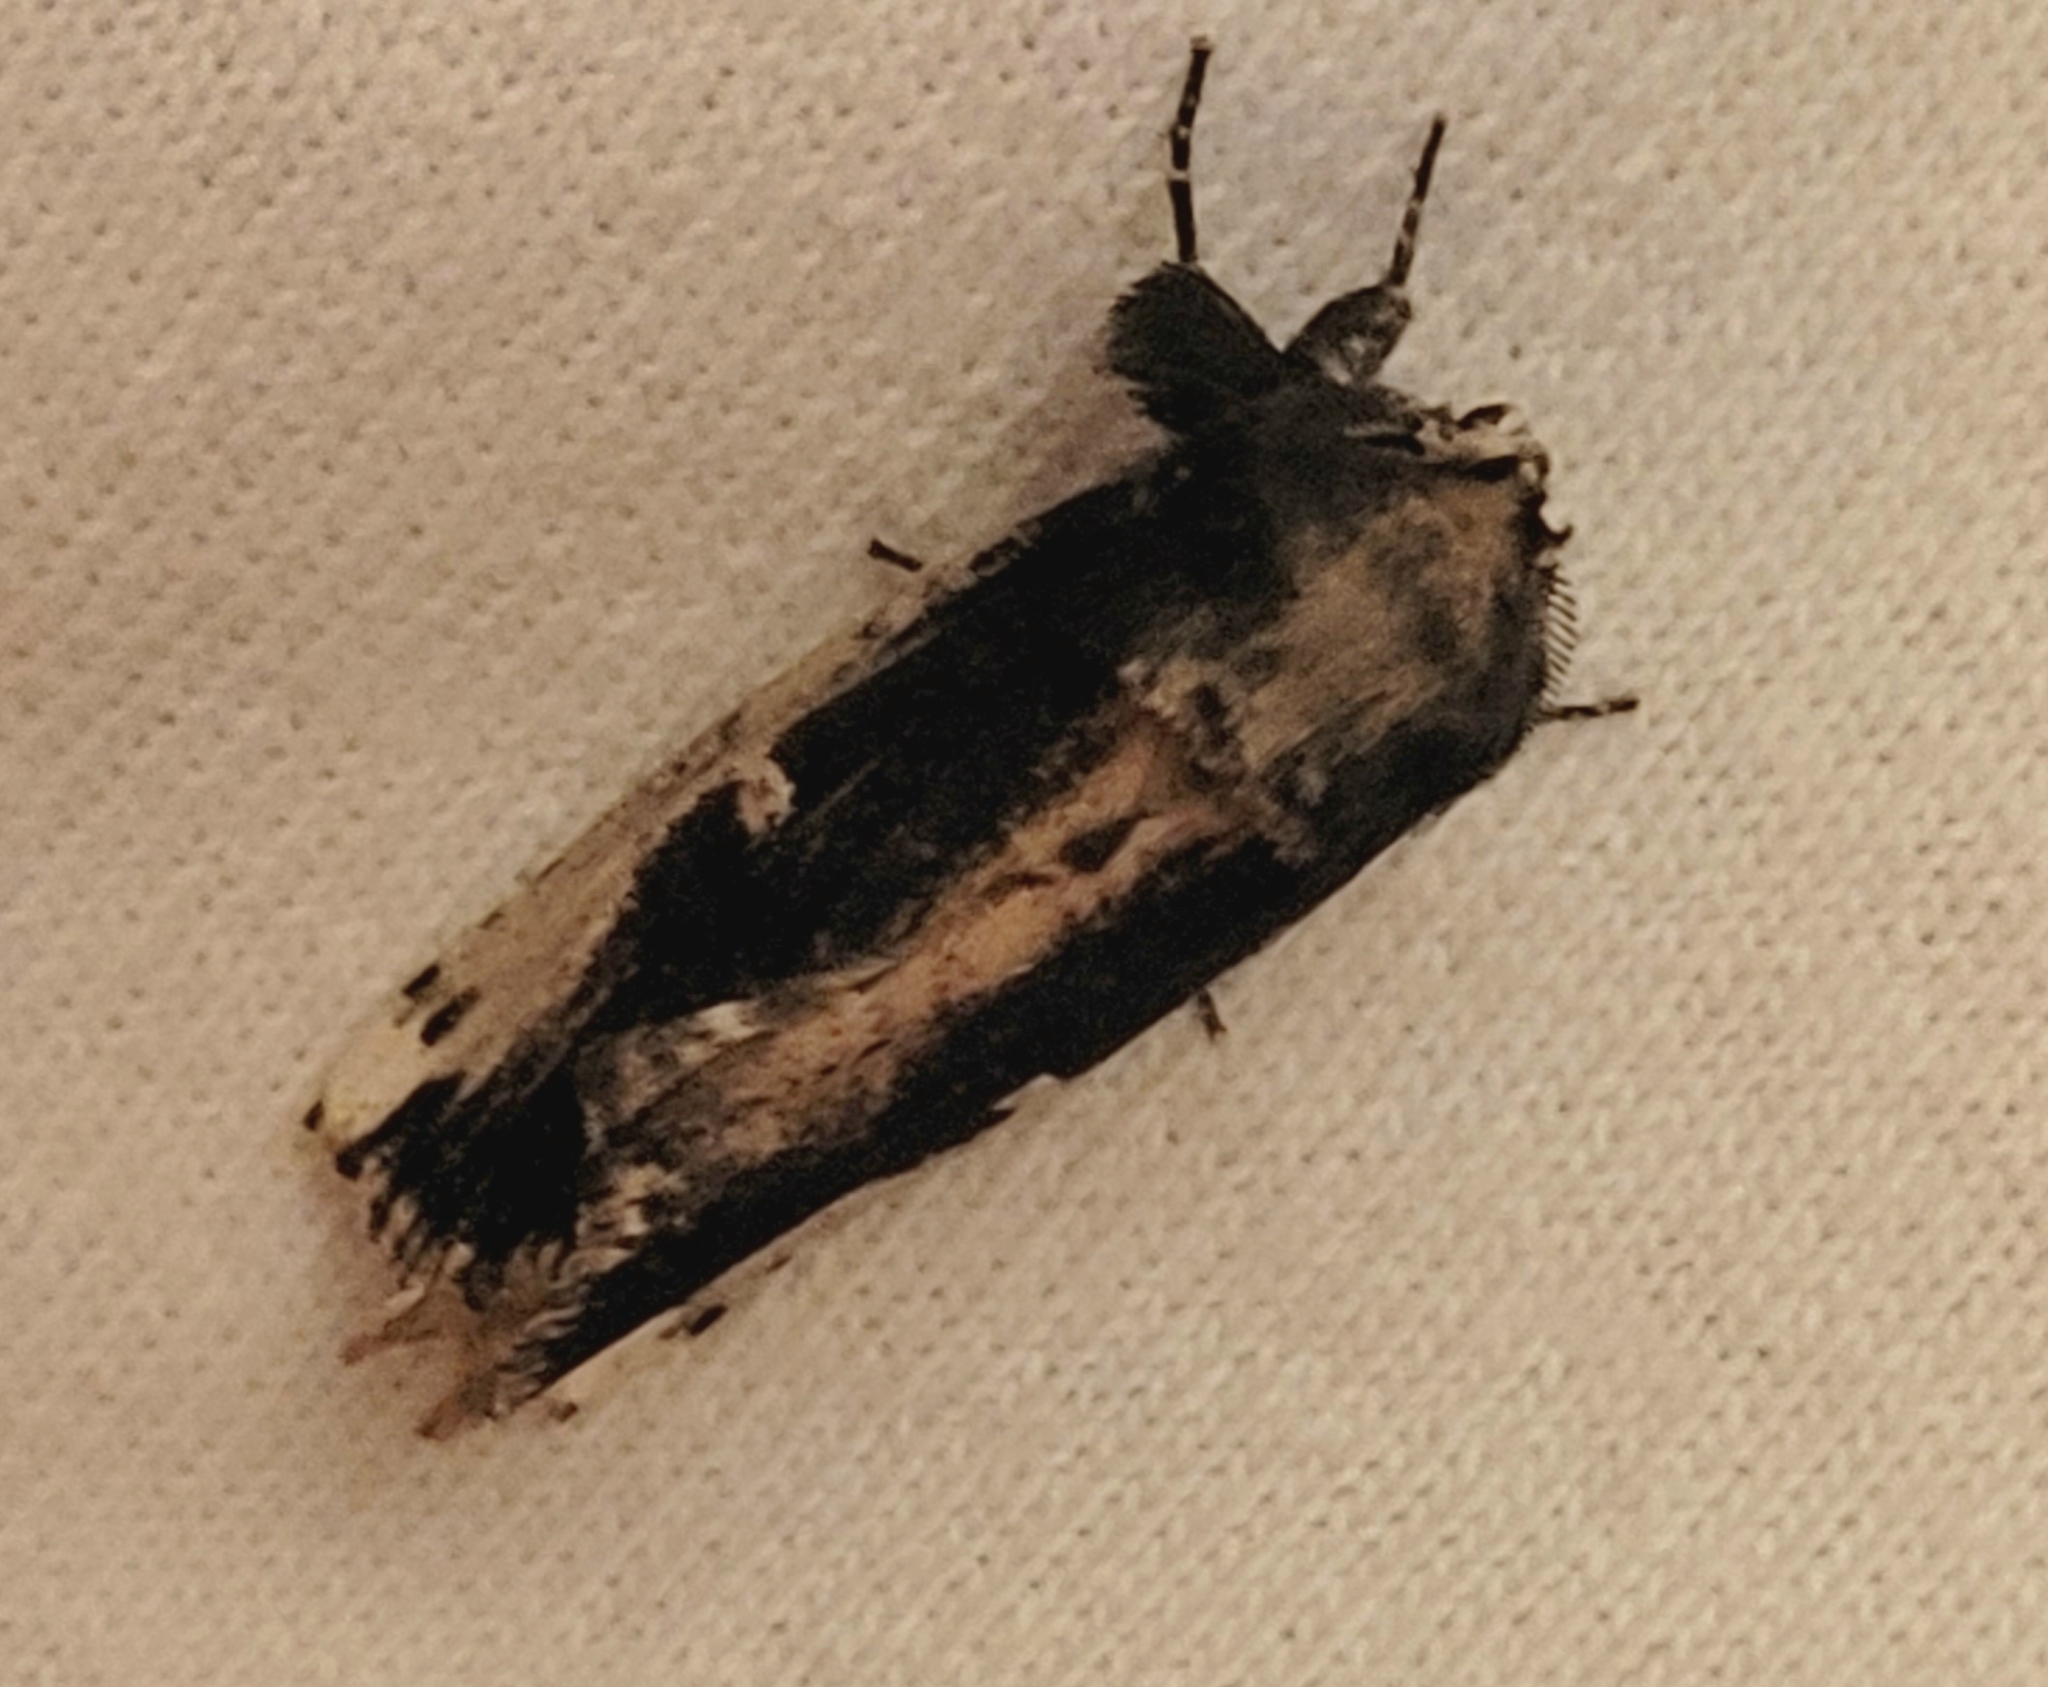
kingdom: Animalia
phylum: Arthropoda
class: Insecta
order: Lepidoptera
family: Notodontidae
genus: Schizura
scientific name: Schizura ipomaeae
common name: Morning-glory prominent
